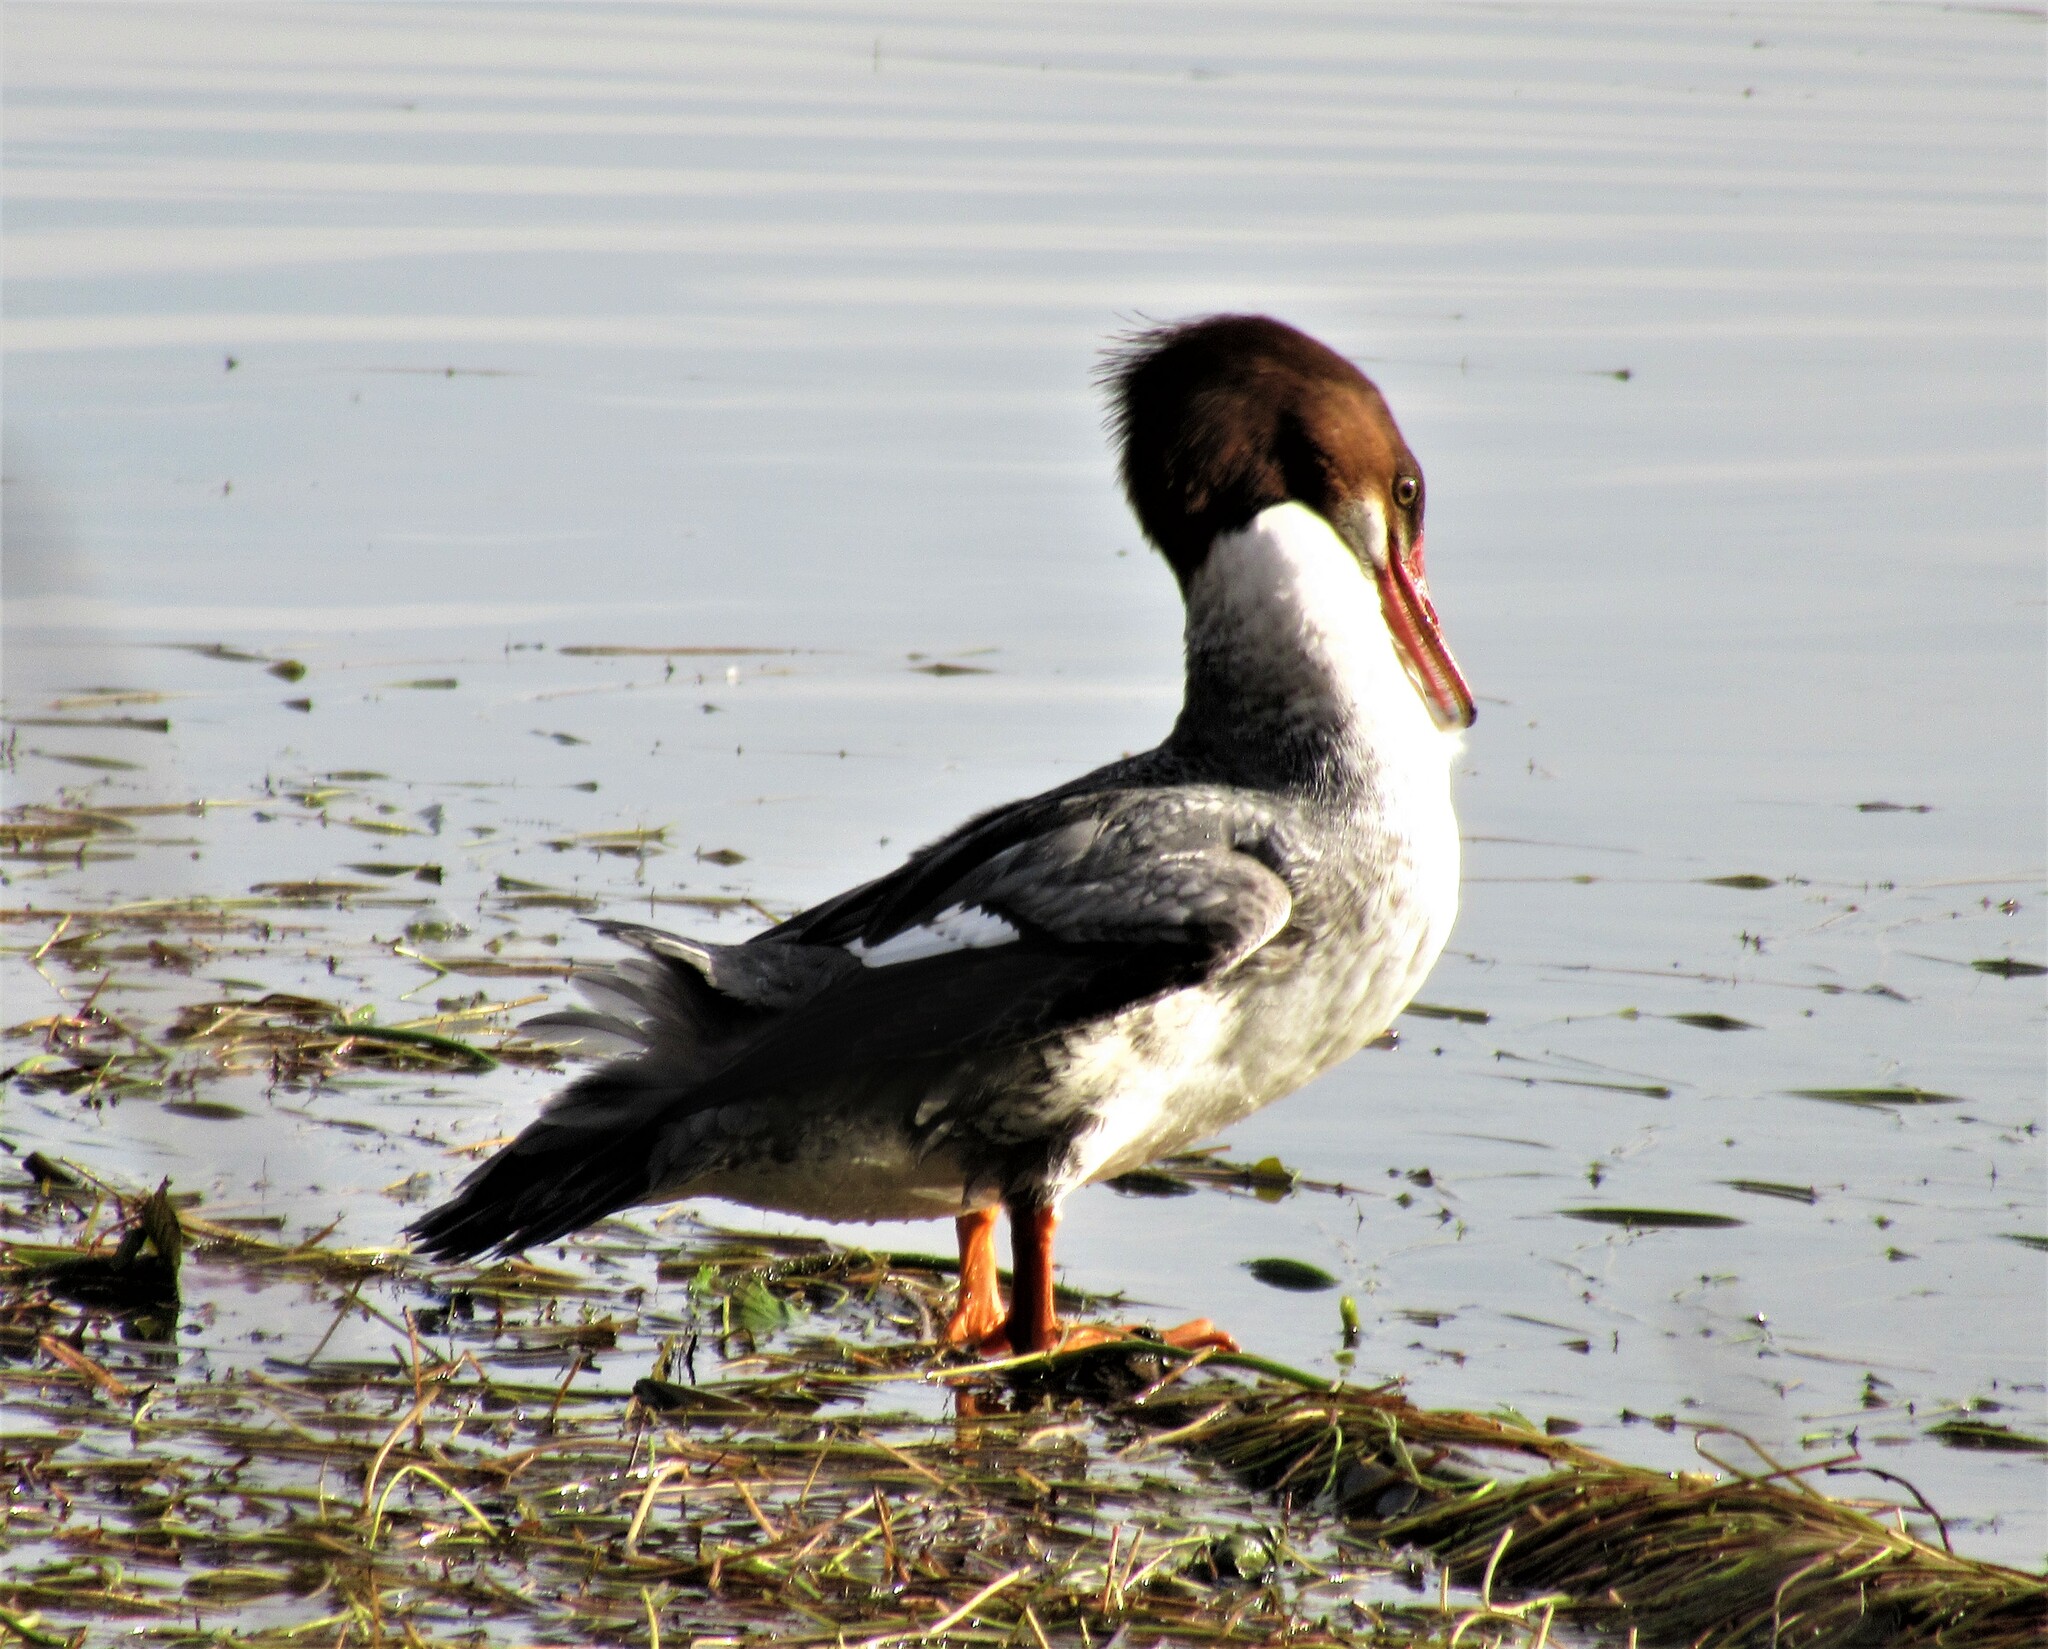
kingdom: Animalia
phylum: Chordata
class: Aves
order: Anseriformes
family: Anatidae
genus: Mergus
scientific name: Mergus merganser
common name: Common merganser
